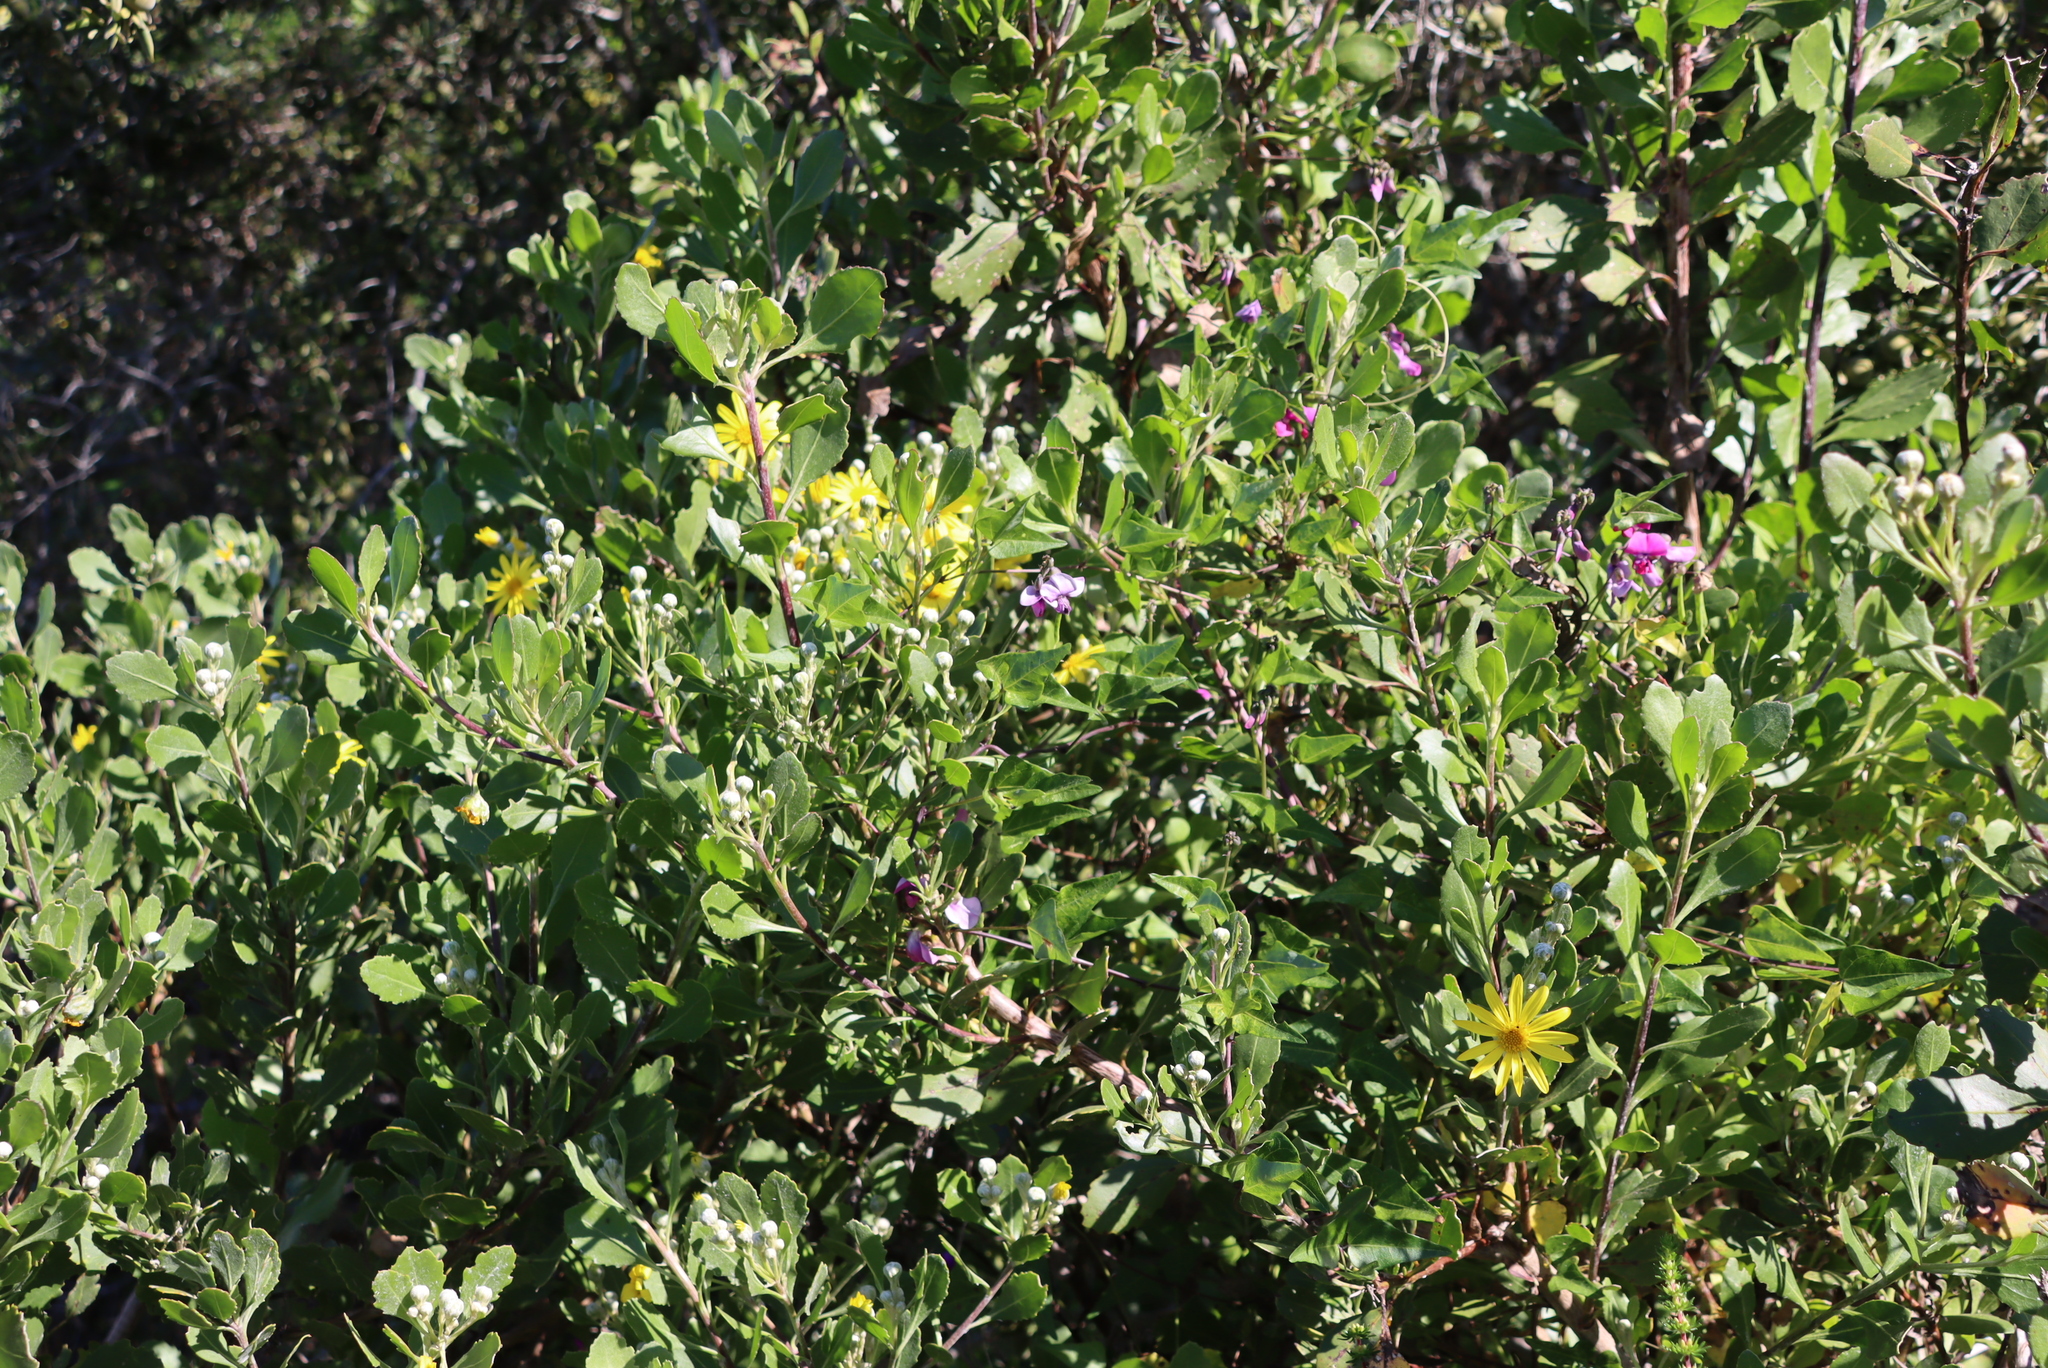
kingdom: Plantae
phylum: Tracheophyta
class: Magnoliopsida
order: Fabales
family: Fabaceae
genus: Dipogon
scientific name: Dipogon lignosus
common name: Okie bean
